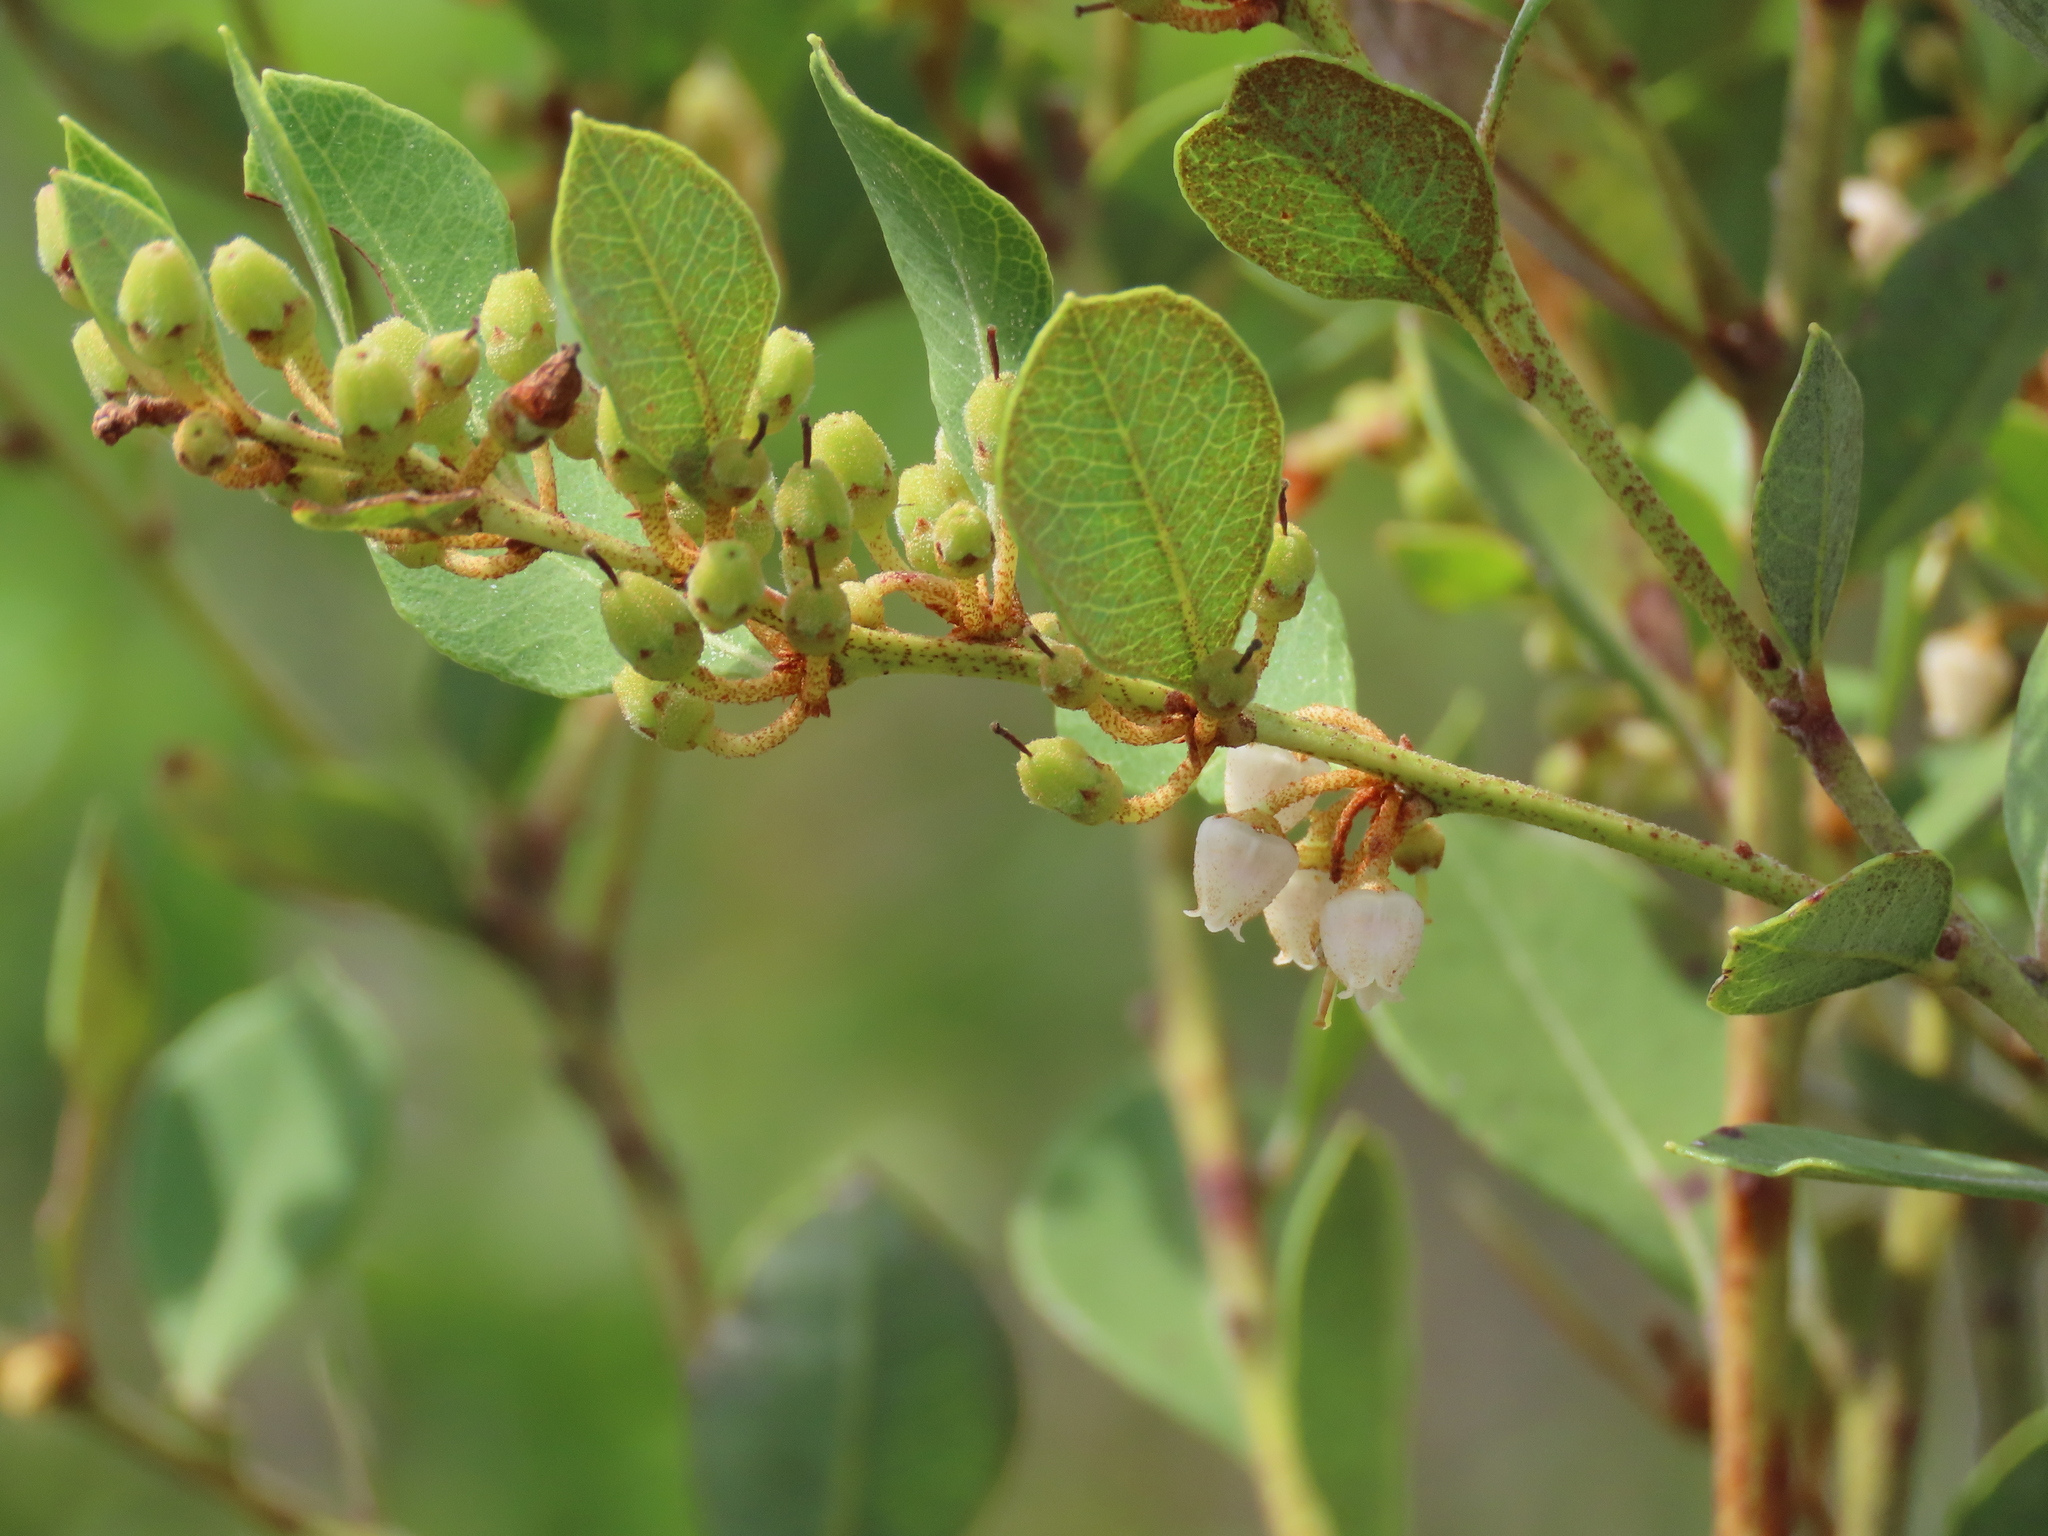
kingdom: Plantae
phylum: Tracheophyta
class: Magnoliopsida
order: Ericales
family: Ericaceae
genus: Lyonia
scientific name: Lyonia fruticosa
